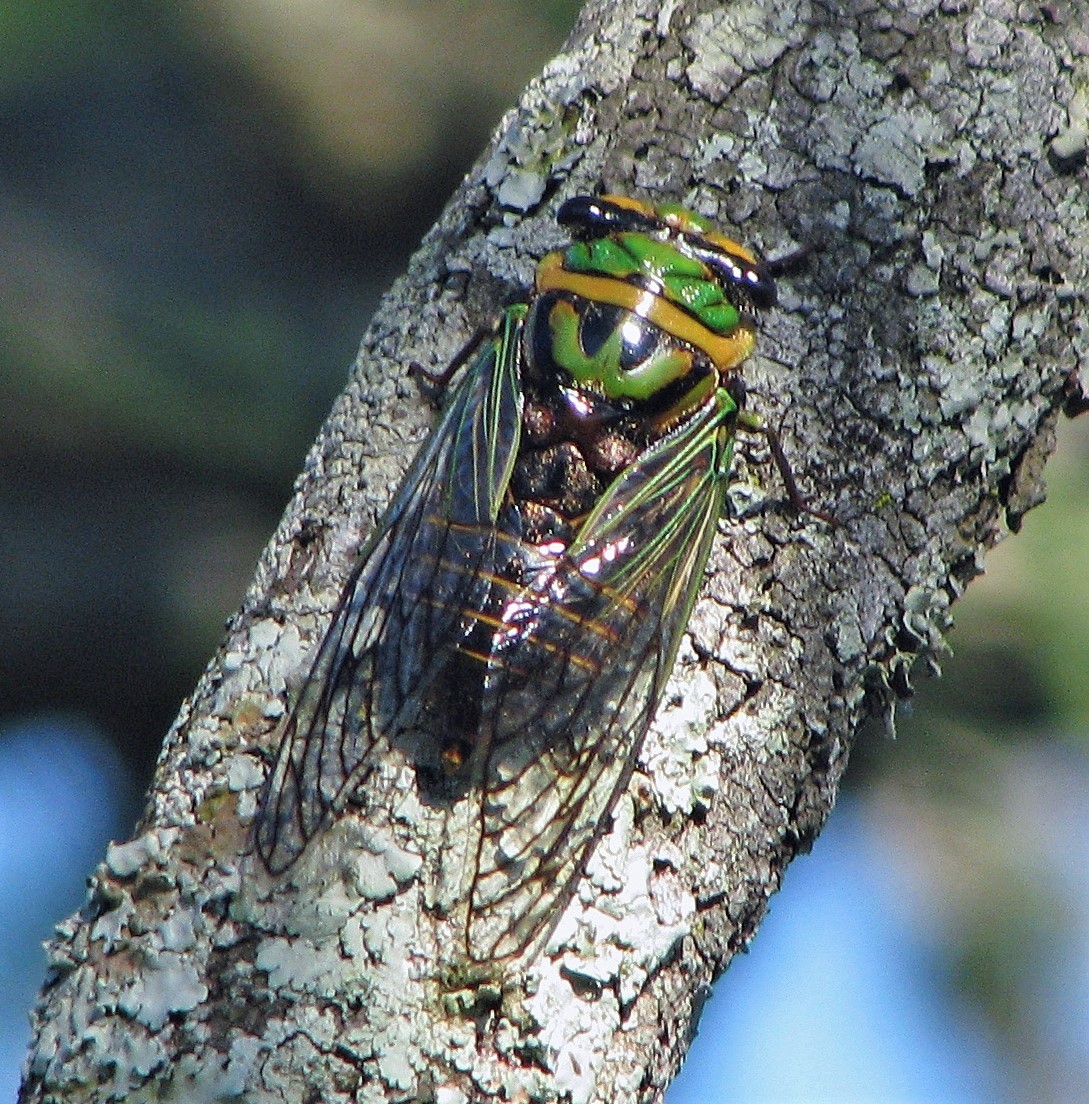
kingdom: Animalia
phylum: Arthropoda
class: Insecta
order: Hemiptera
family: Cicadidae
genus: Guyalna
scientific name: Guyalna bonaerensis
